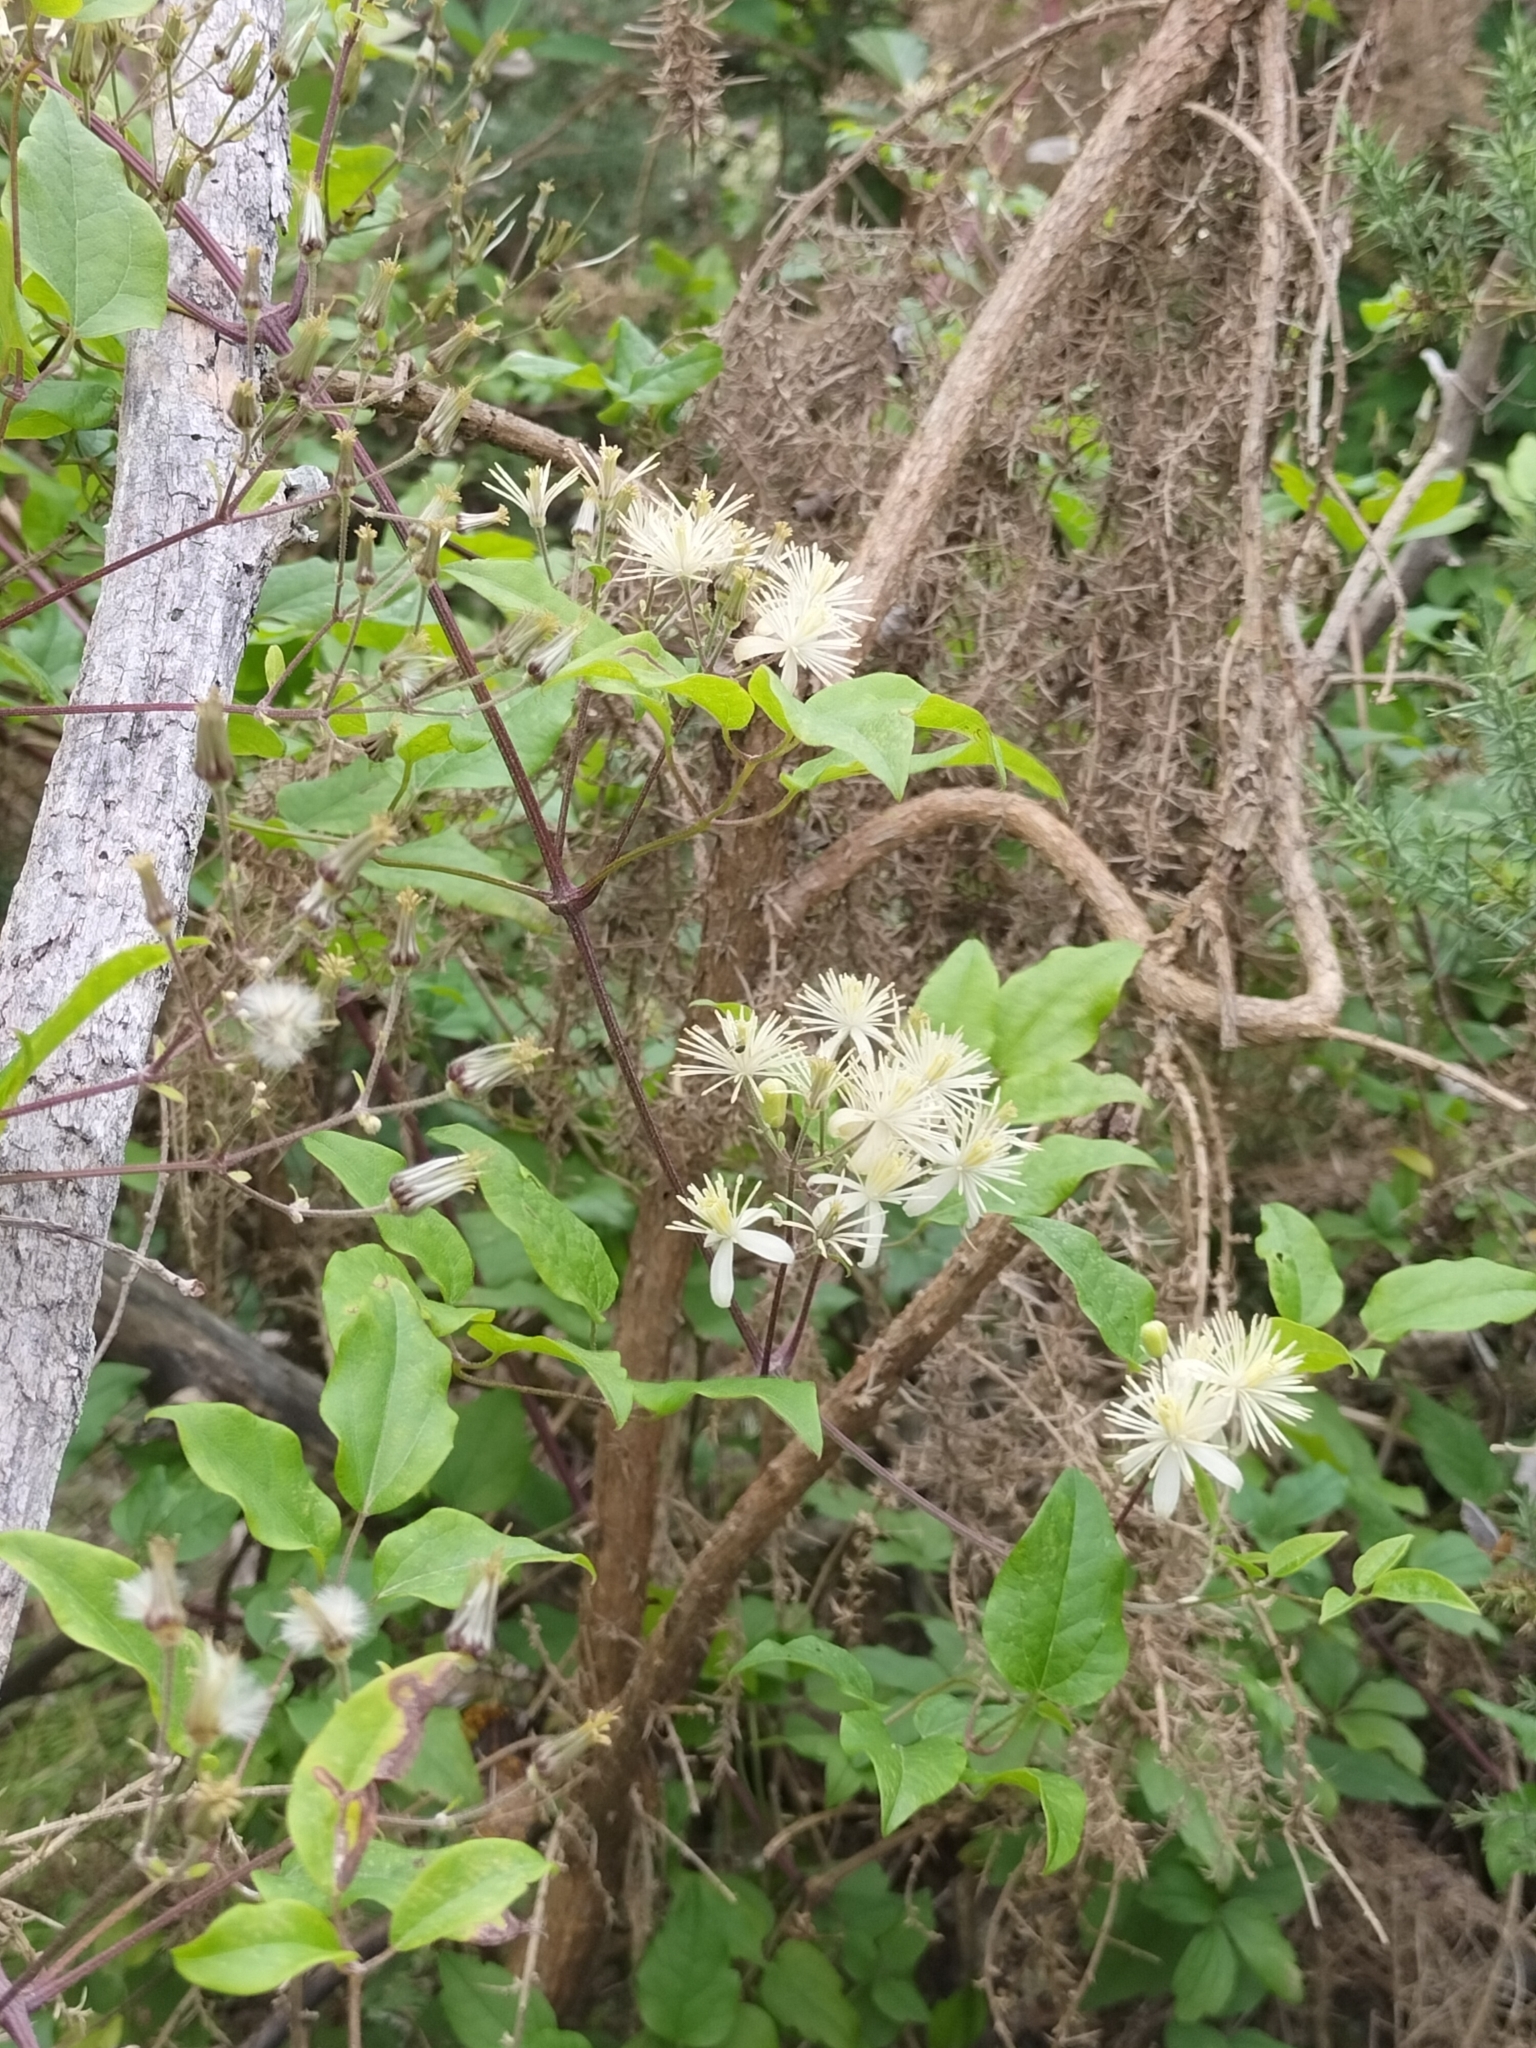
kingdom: Plantae
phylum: Tracheophyta
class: Magnoliopsida
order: Ranunculales
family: Ranunculaceae
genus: Clematis
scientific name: Clematis vitalba
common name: Evergreen clematis
